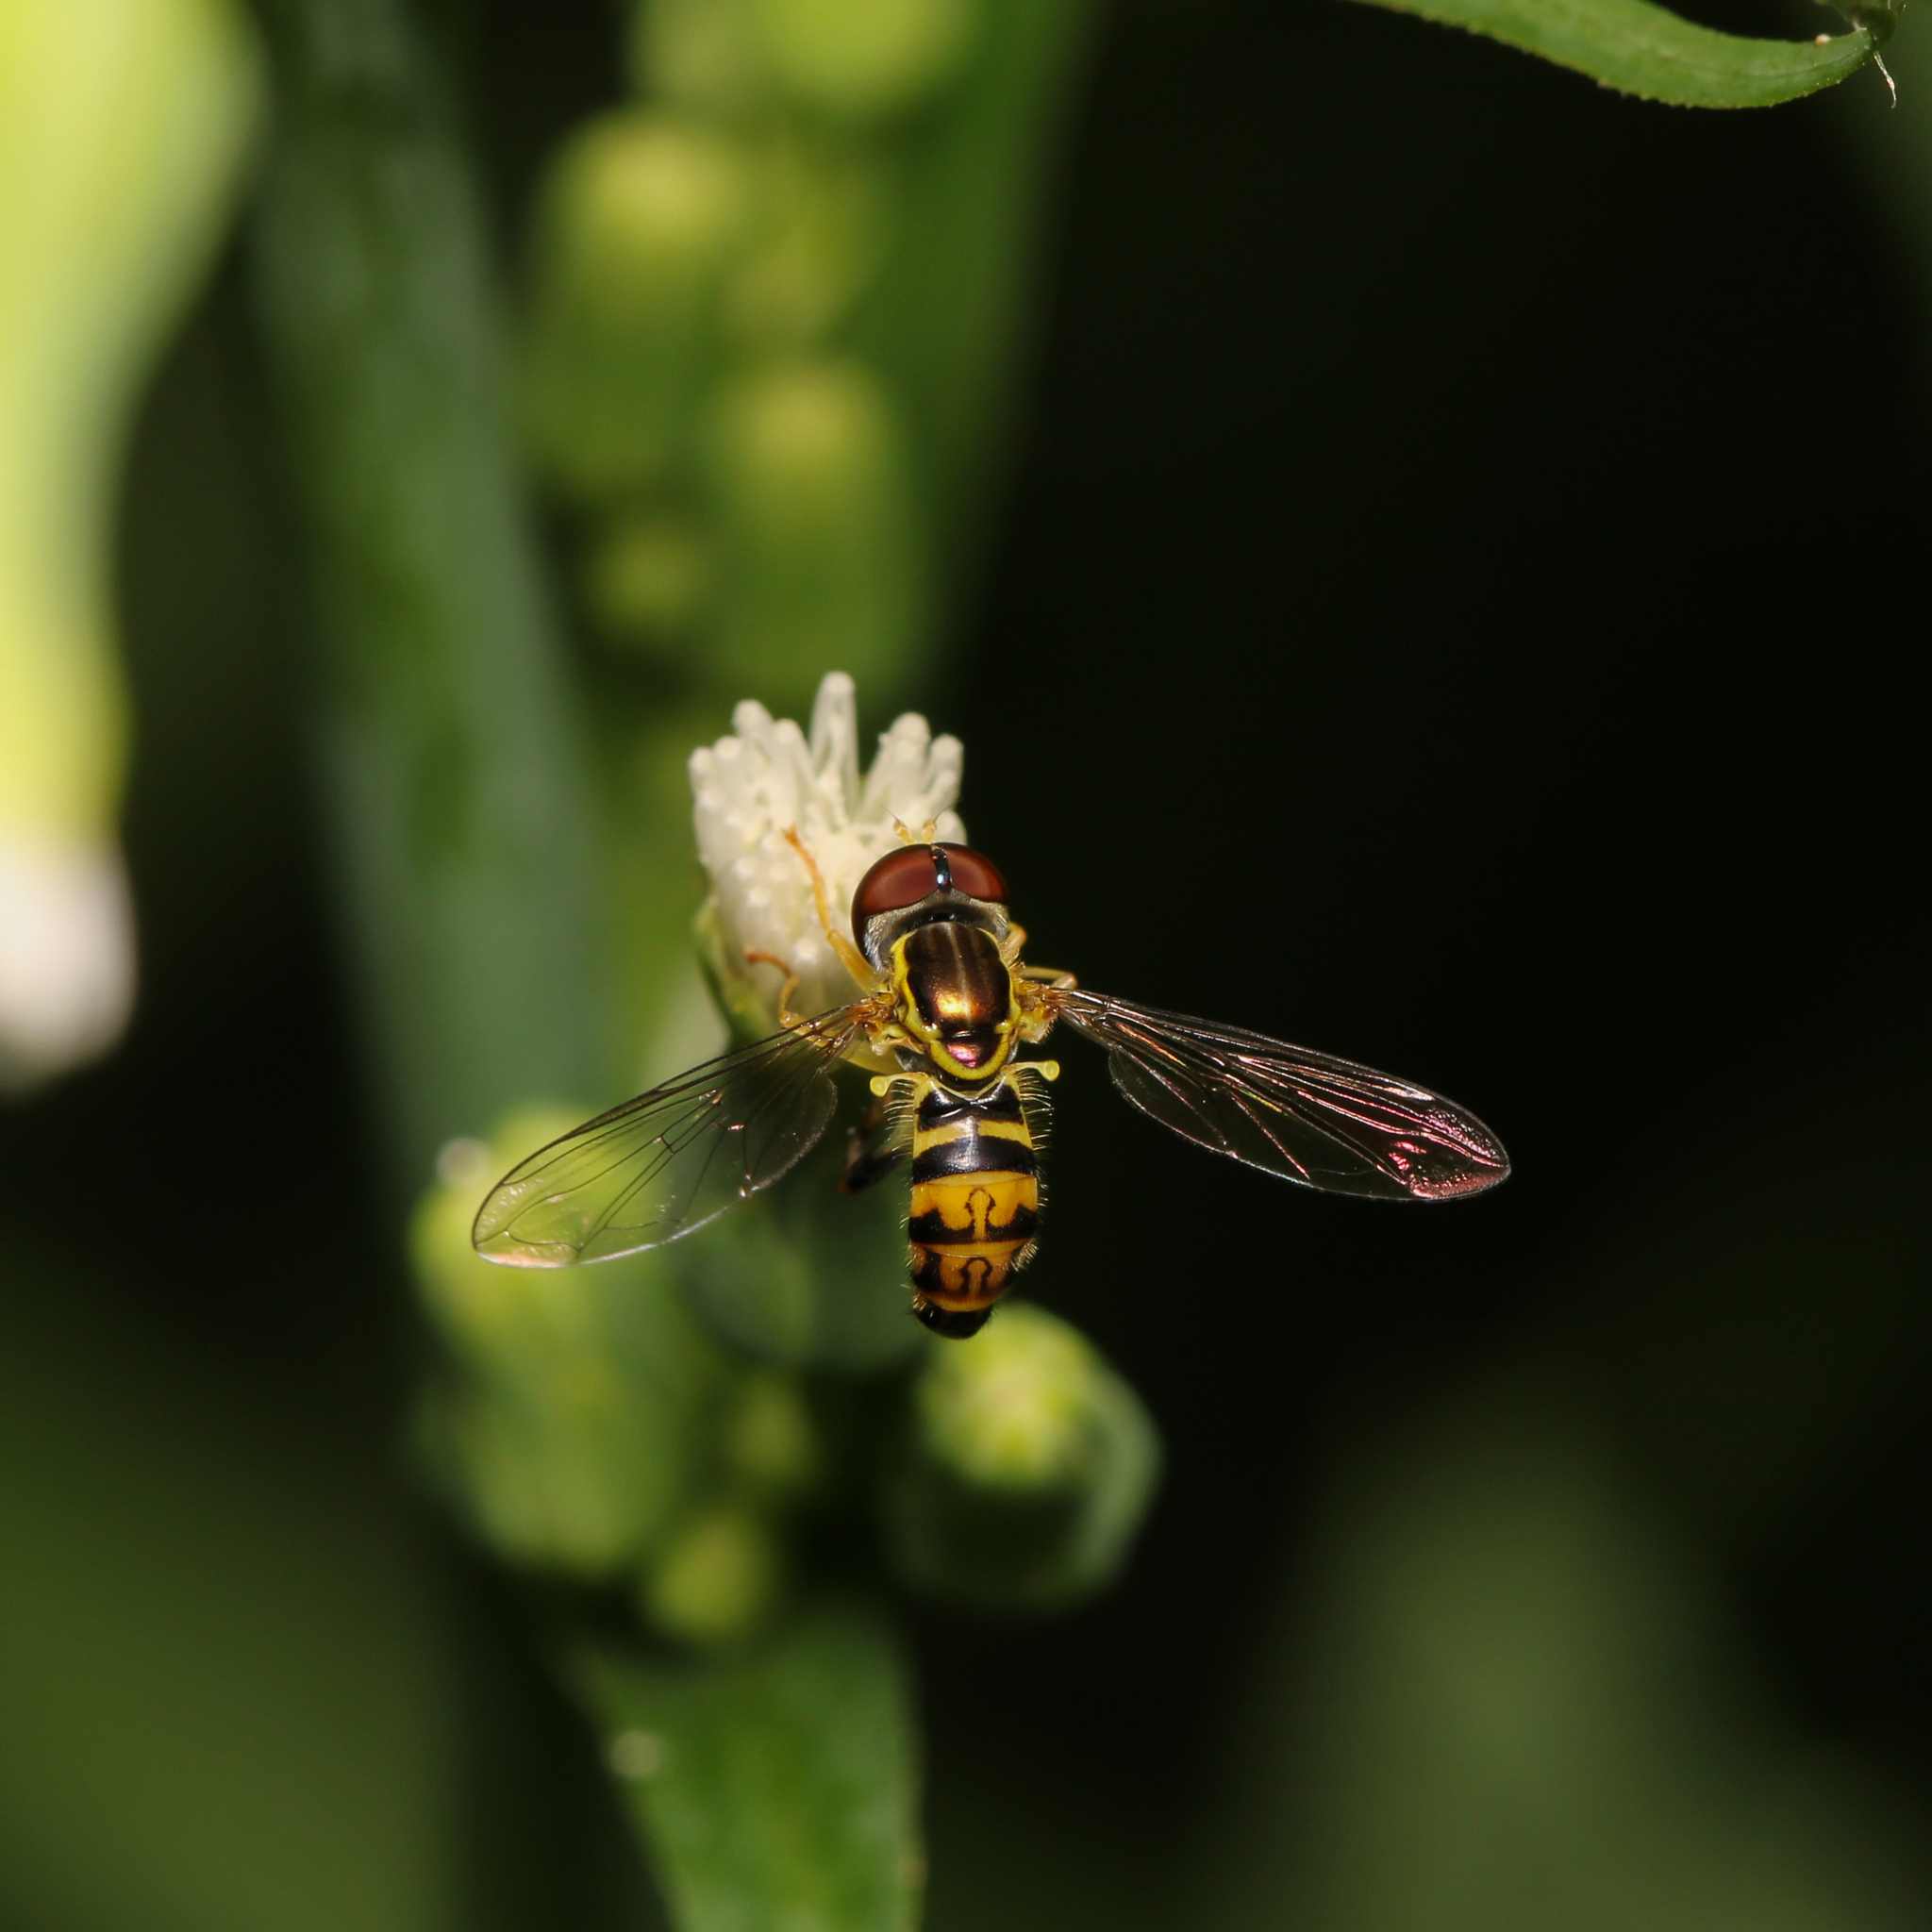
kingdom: Animalia
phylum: Arthropoda
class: Insecta
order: Diptera
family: Syrphidae
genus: Toxomerus
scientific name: Toxomerus geminatus
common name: Eastern calligrapher
